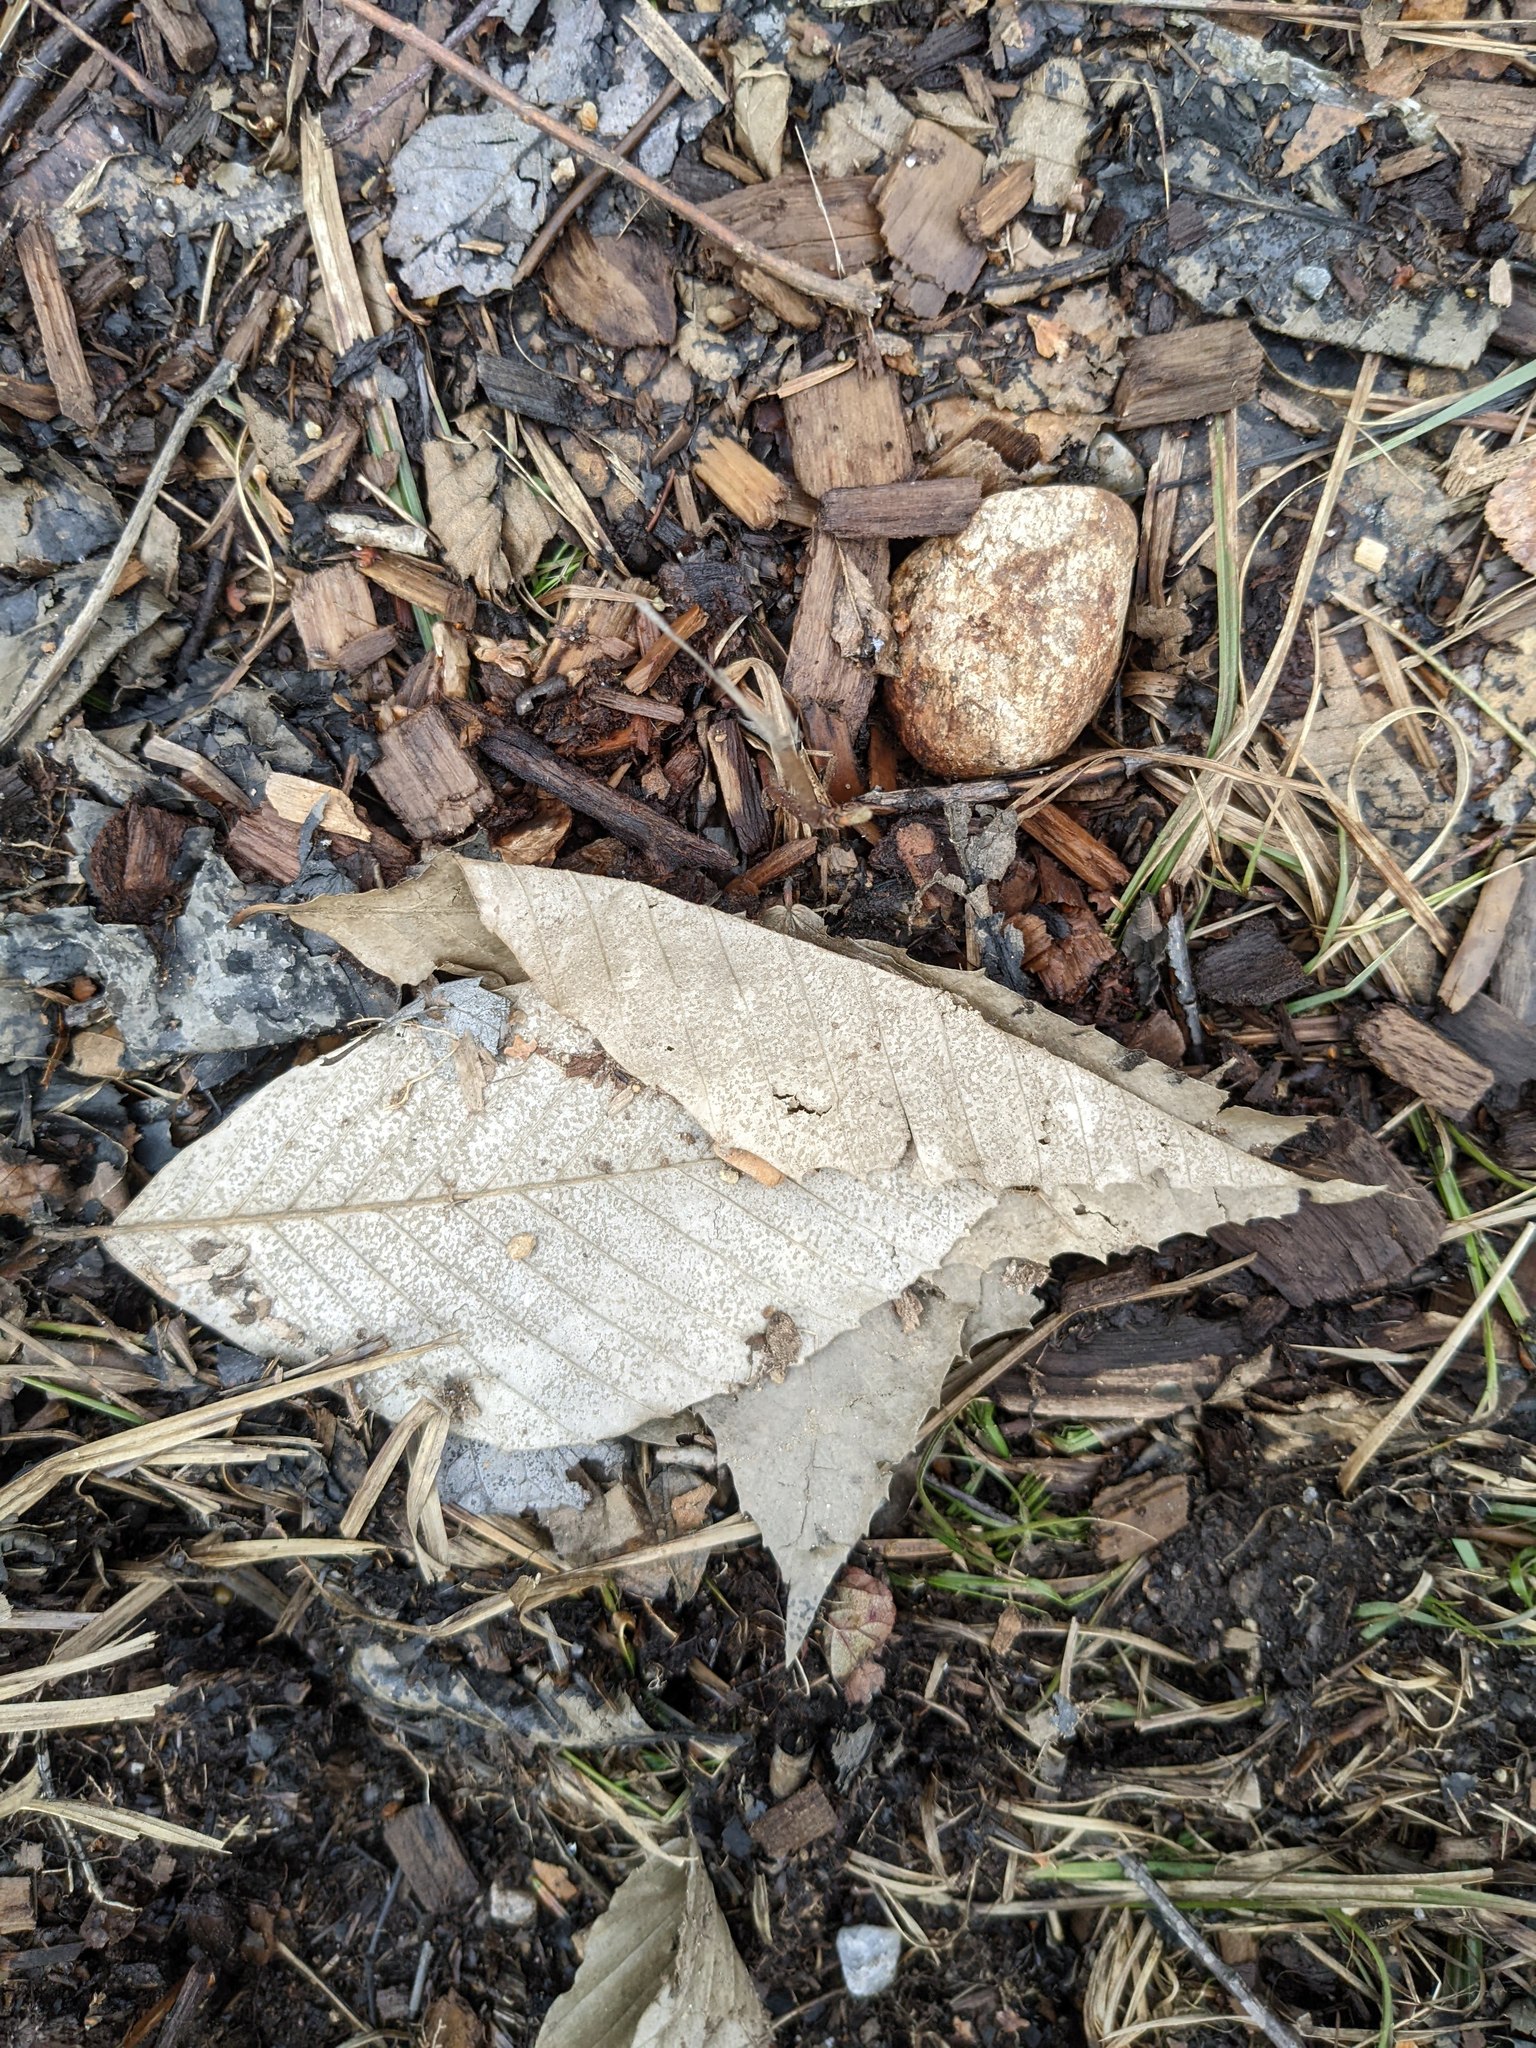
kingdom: Plantae
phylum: Tracheophyta
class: Magnoliopsida
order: Fagales
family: Fagaceae
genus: Fagus
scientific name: Fagus grandifolia
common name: American beech
